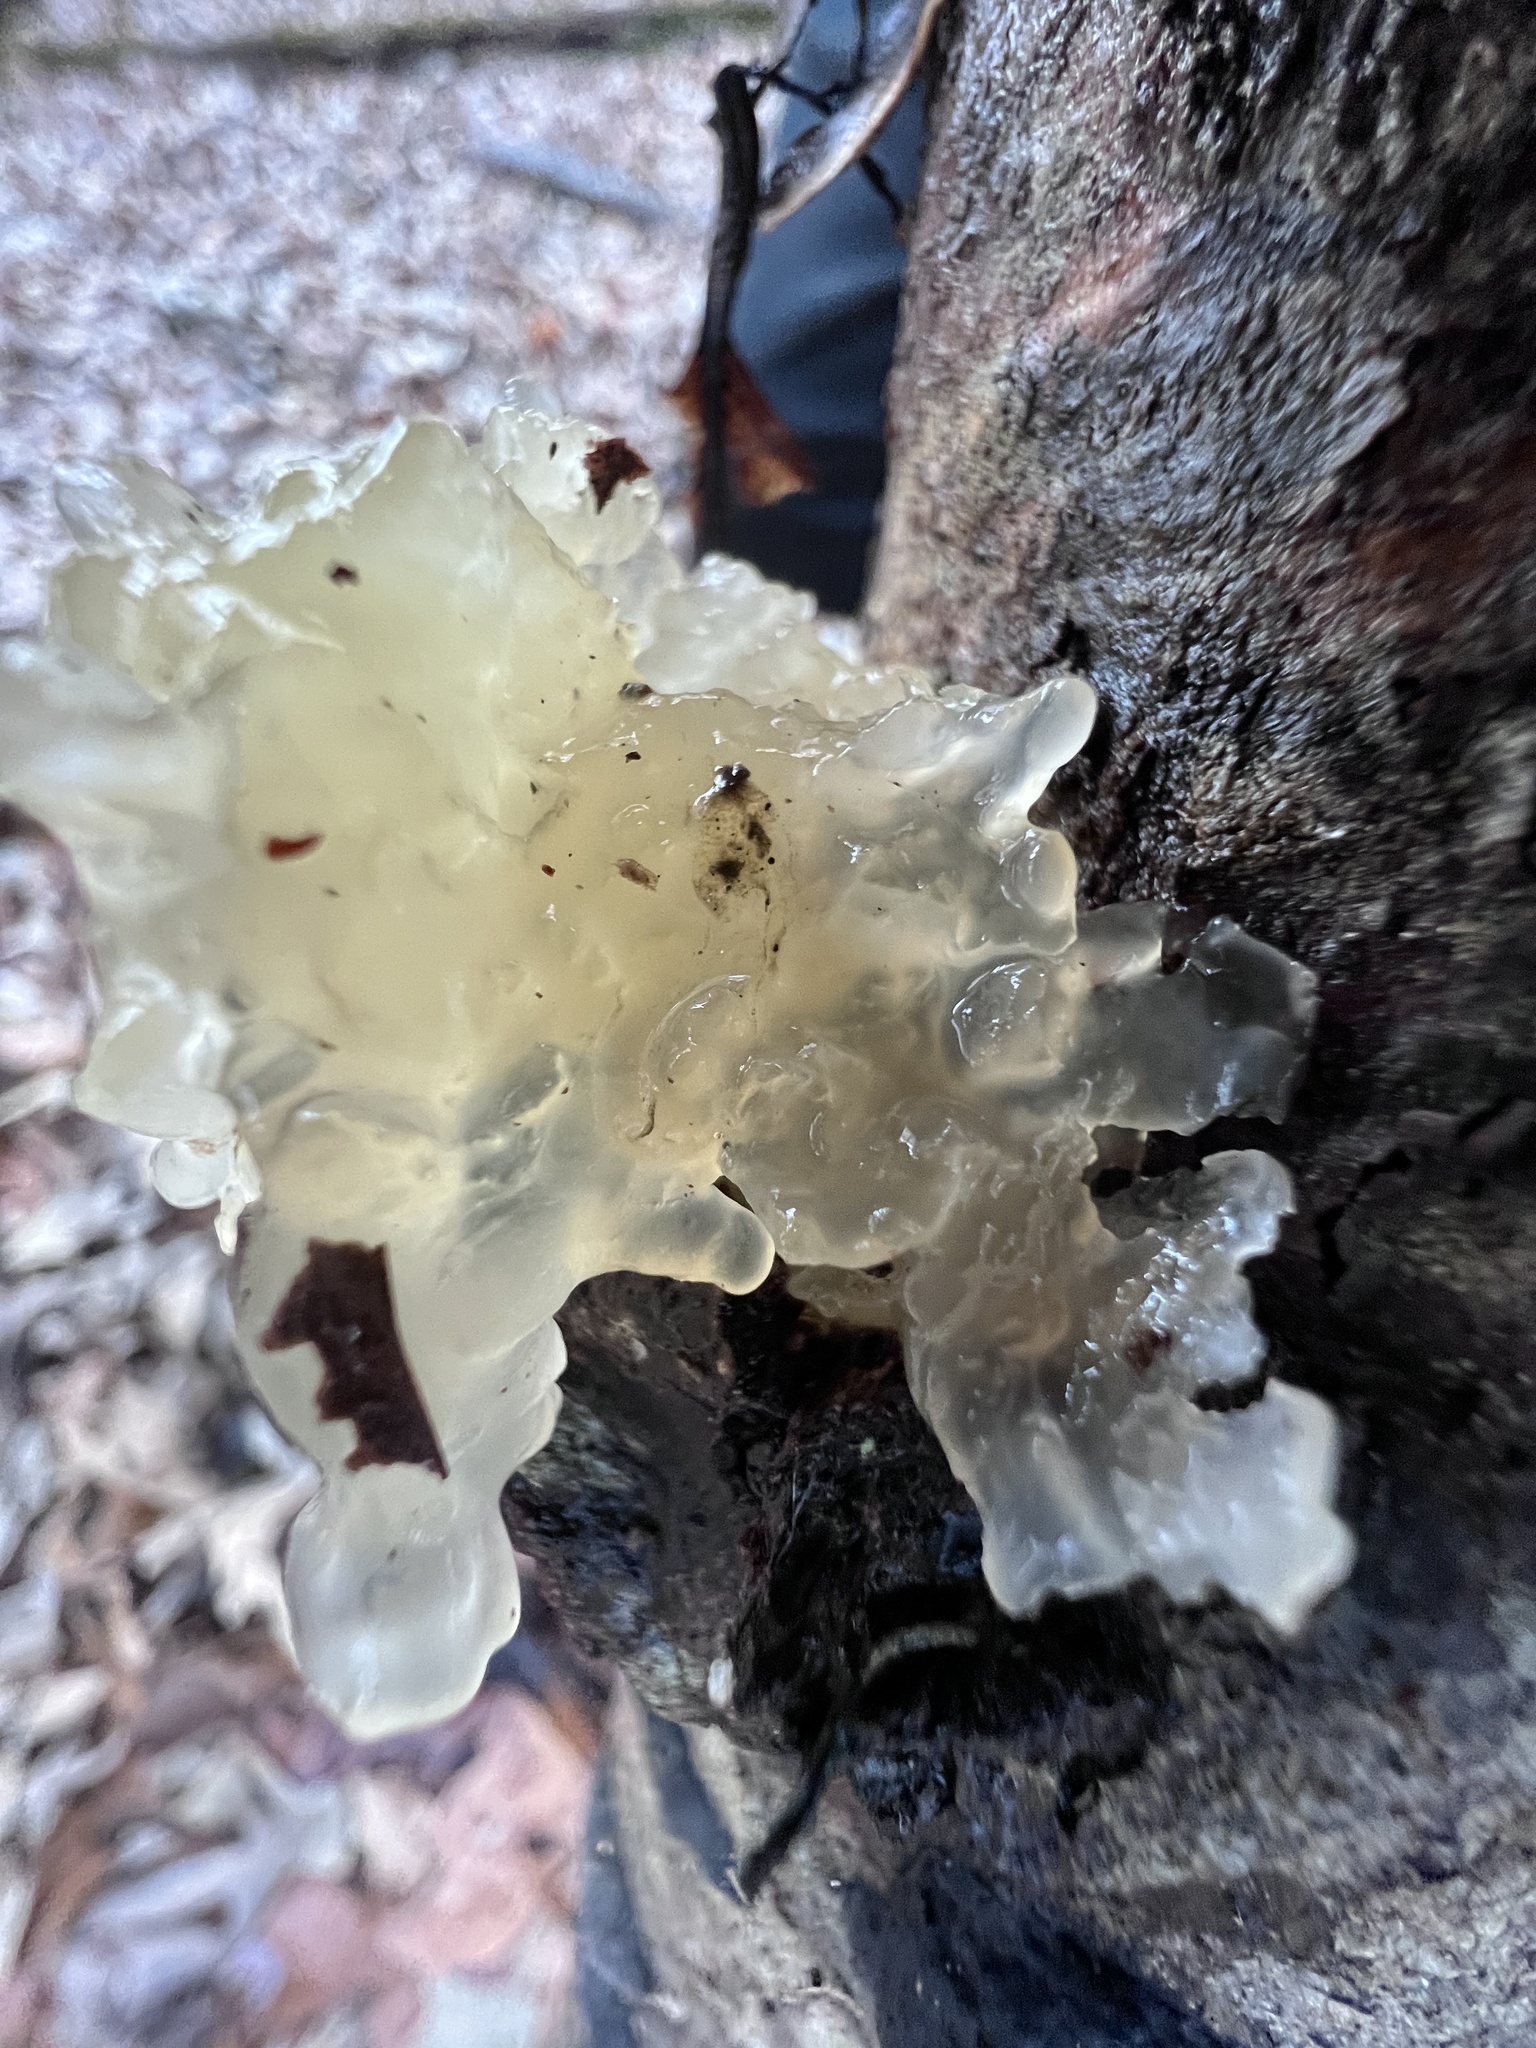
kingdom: Fungi
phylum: Basidiomycota
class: Tremellomycetes
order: Tremellales
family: Tremellaceae
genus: Tremella
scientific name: Tremella fuciformis
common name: Snow fungus
